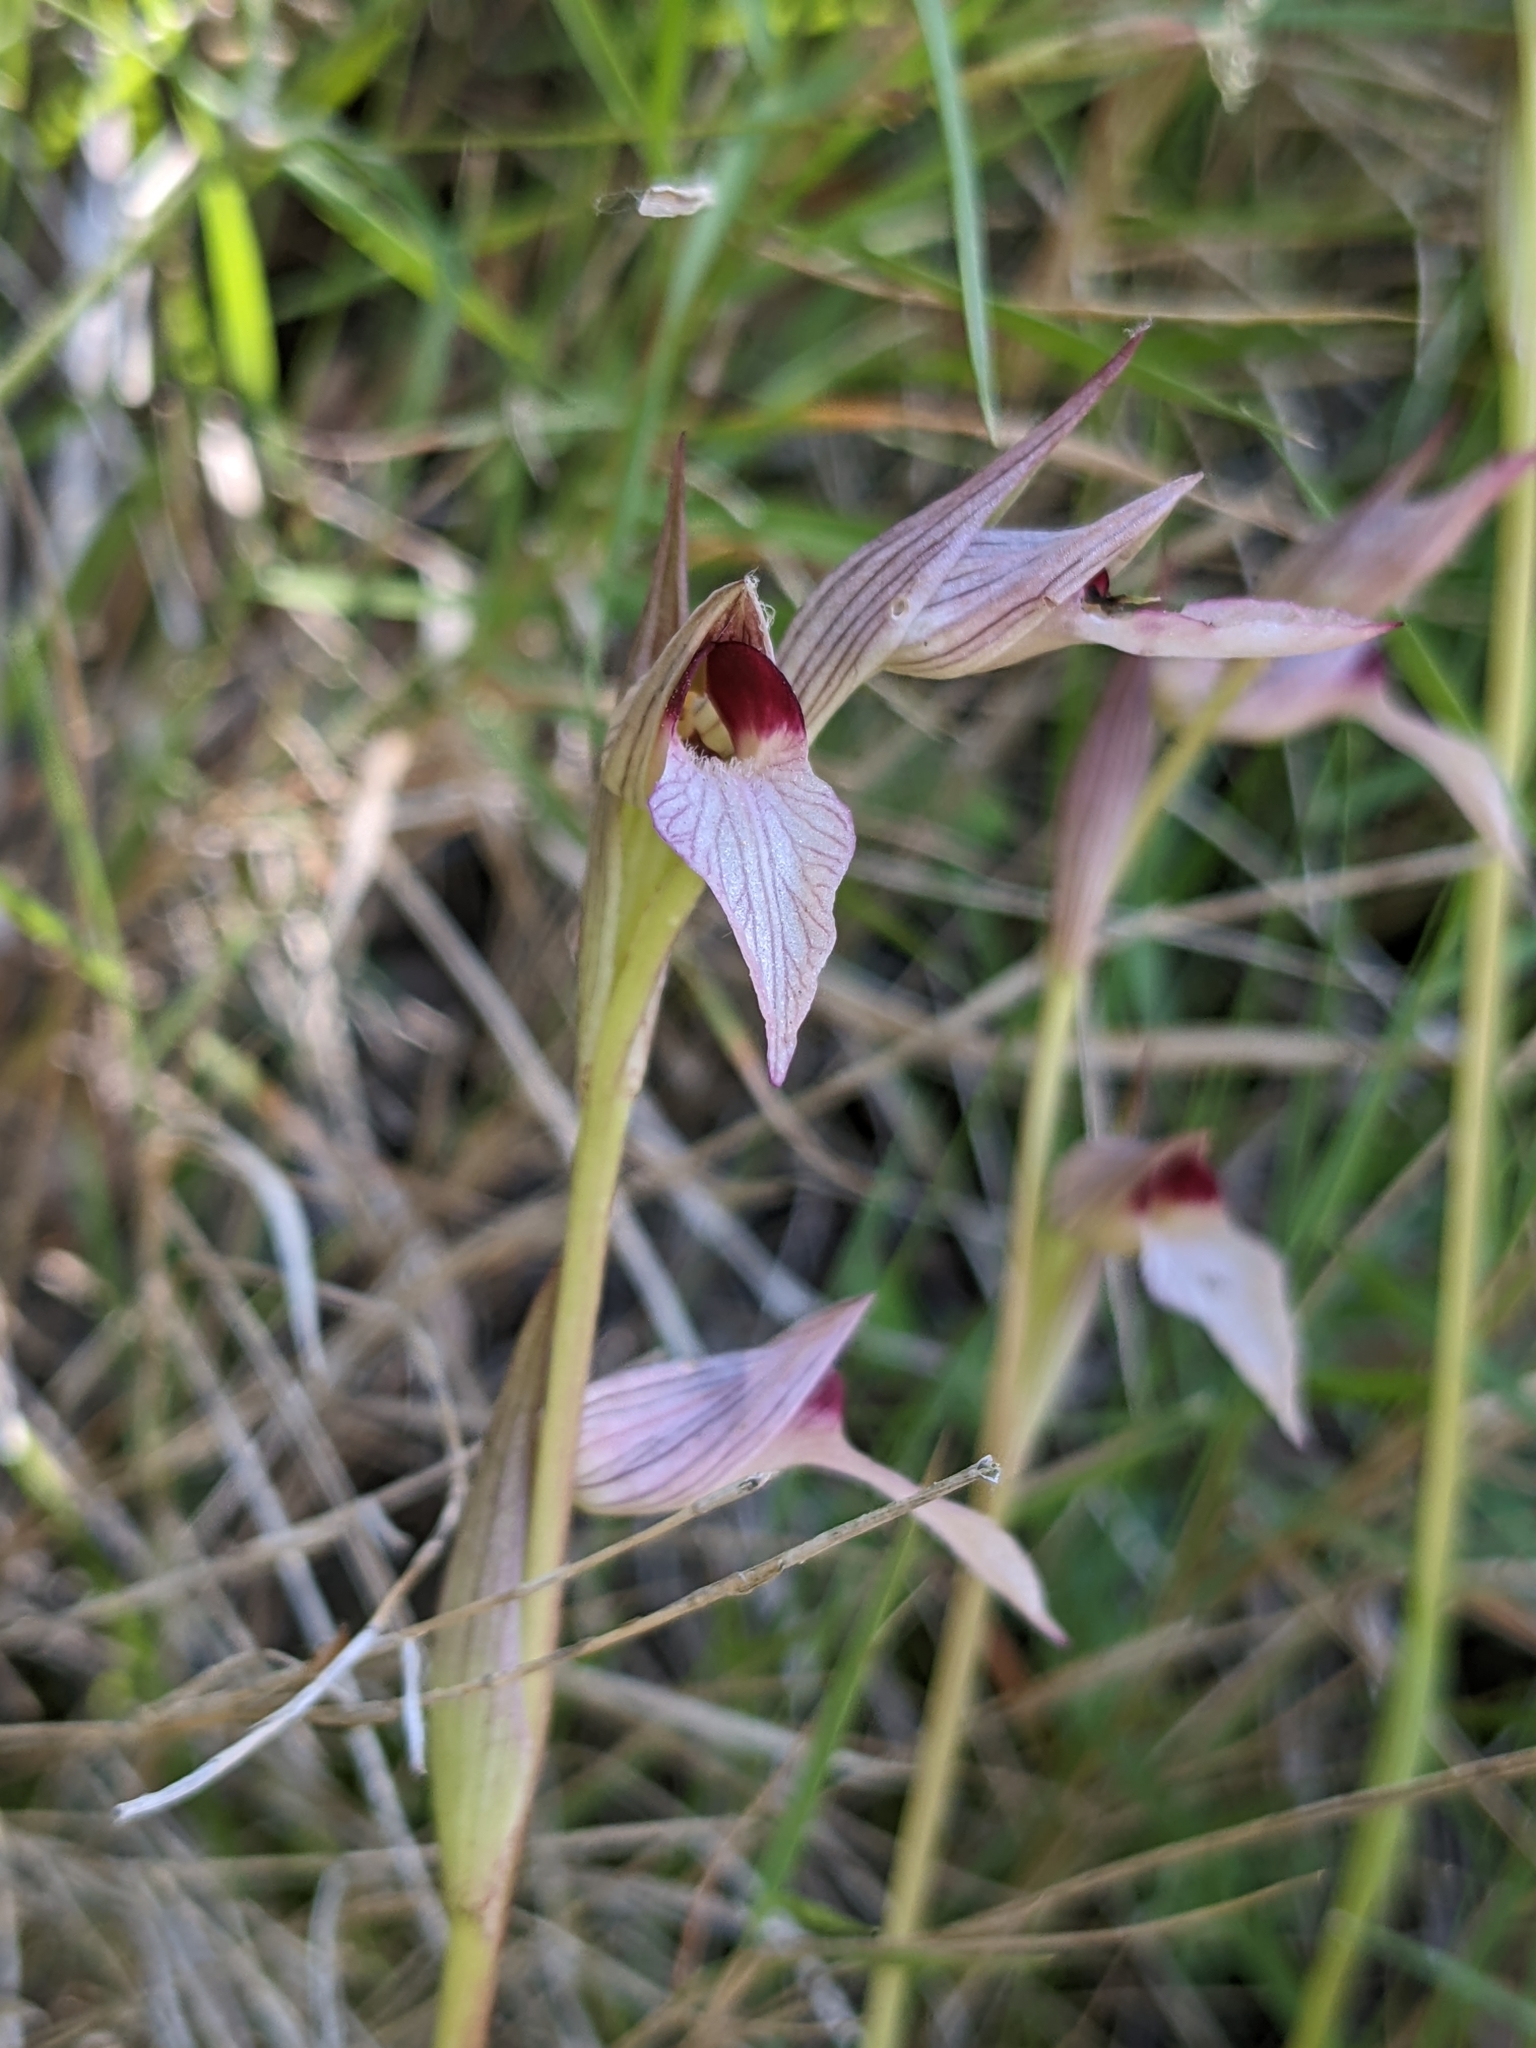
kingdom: Plantae
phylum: Tracheophyta
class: Liliopsida
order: Asparagales
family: Orchidaceae
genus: Serapias
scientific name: Serapias lingua
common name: Tongue-orchid
